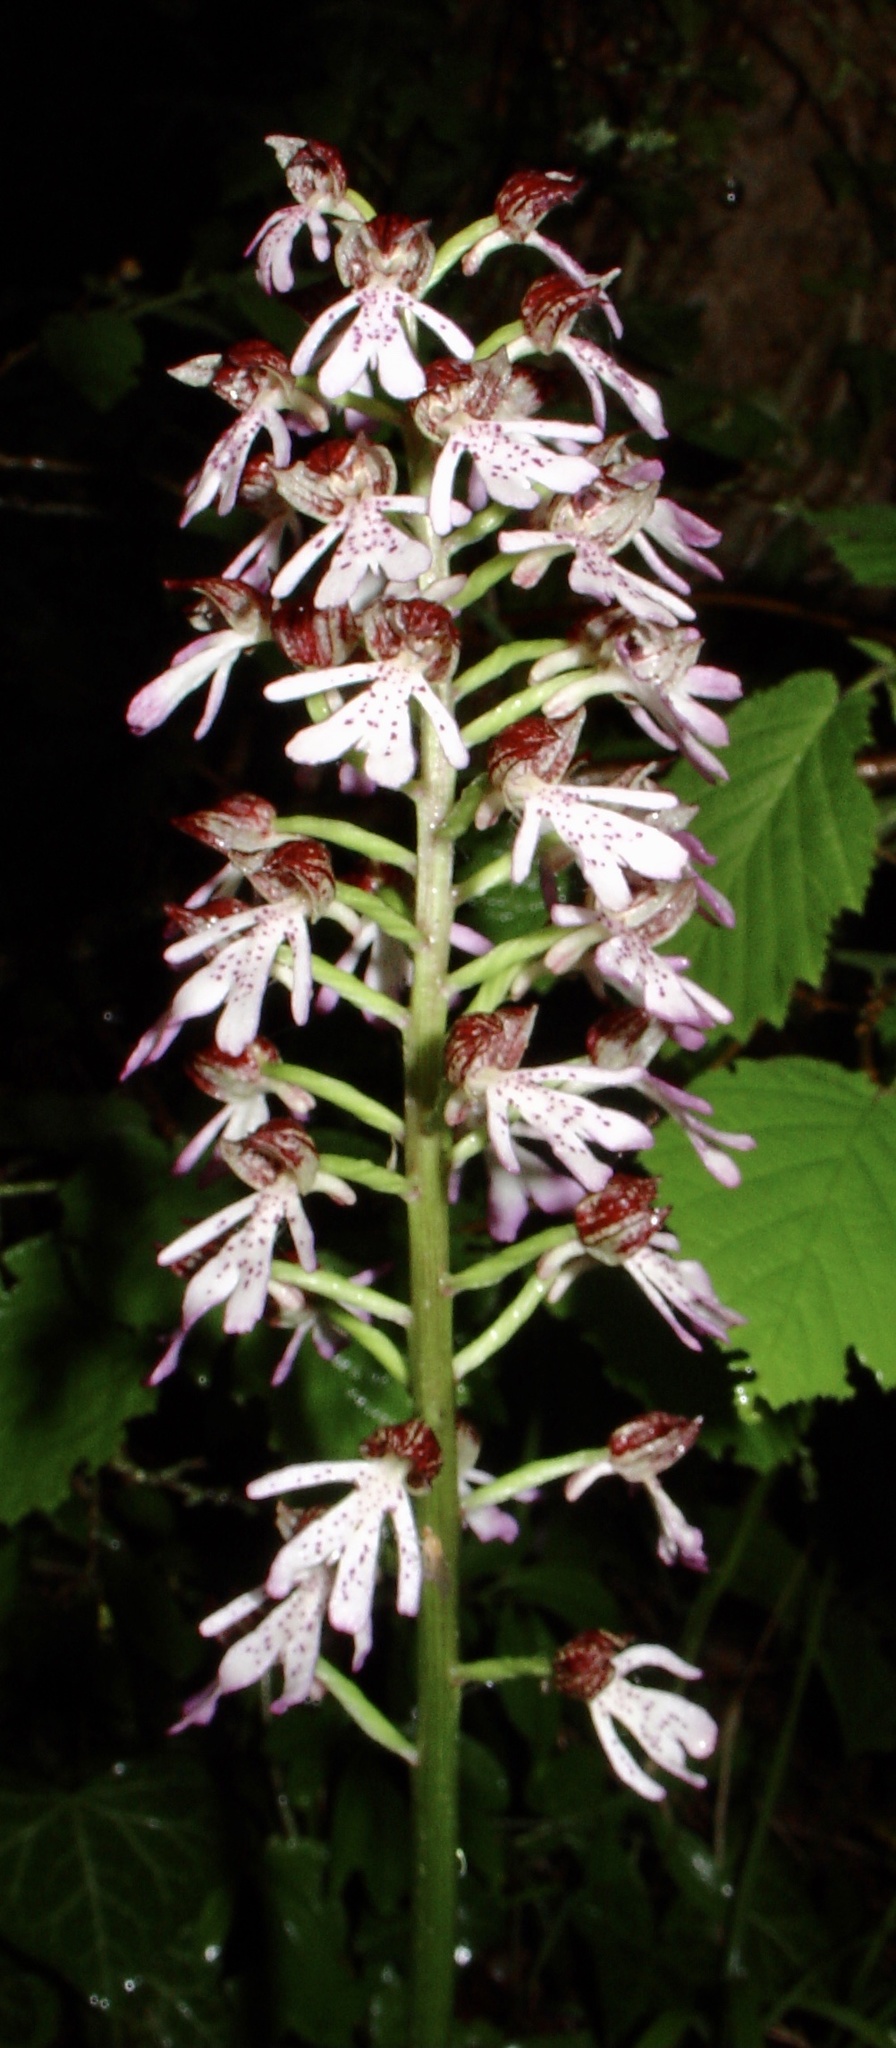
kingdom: Plantae
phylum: Tracheophyta
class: Liliopsida
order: Asparagales
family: Orchidaceae
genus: Orchis
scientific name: Orchis hybrida
